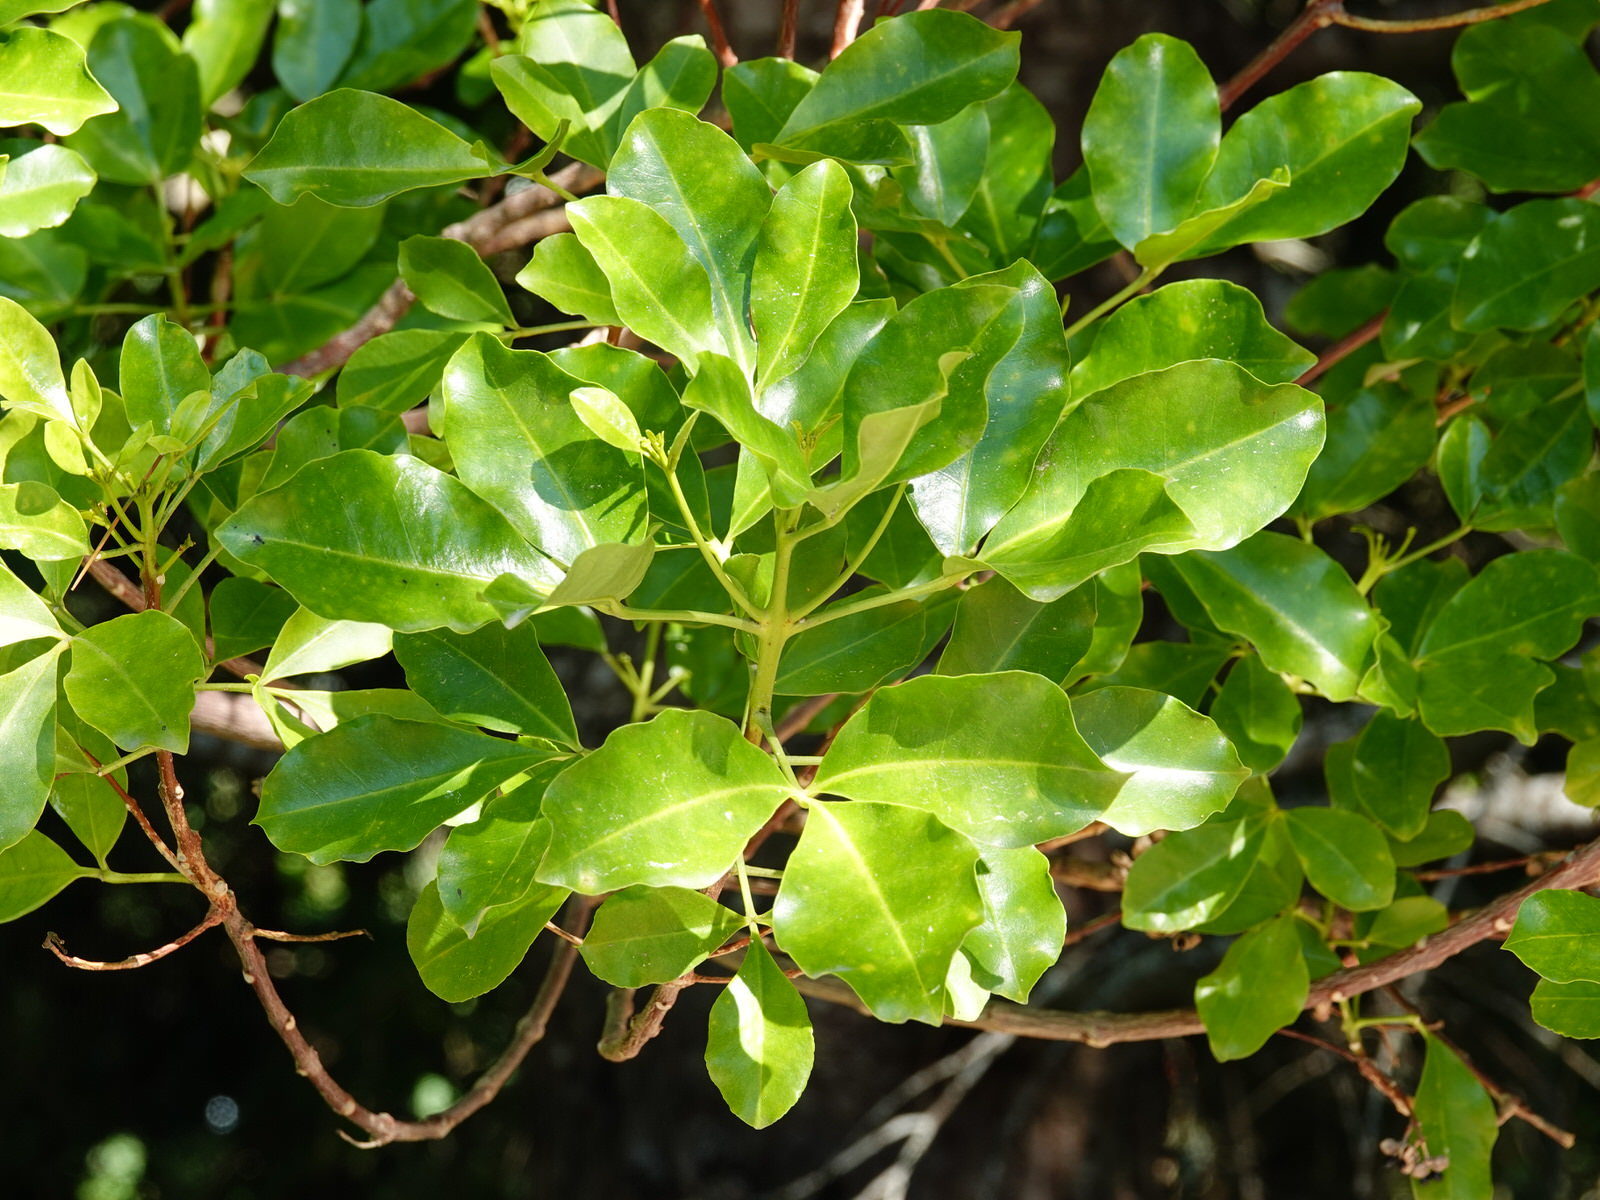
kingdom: Plantae
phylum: Tracheophyta
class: Magnoliopsida
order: Sapindales
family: Rutaceae
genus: Melicope
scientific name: Melicope ternata
